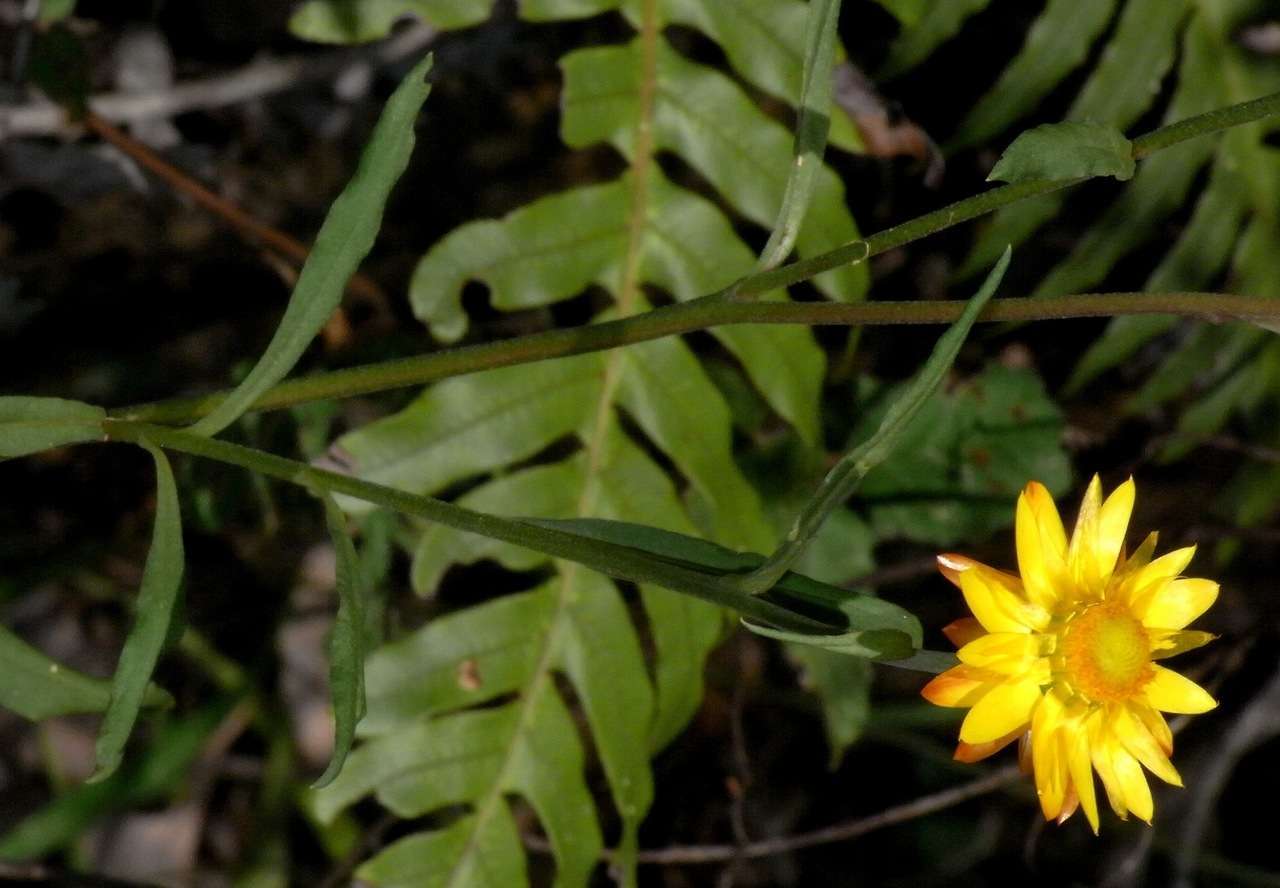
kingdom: Plantae
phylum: Tracheophyta
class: Magnoliopsida
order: Asterales
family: Asteraceae
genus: Xerochrysum
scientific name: Xerochrysum bracteatum
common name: Bracted strawflower
